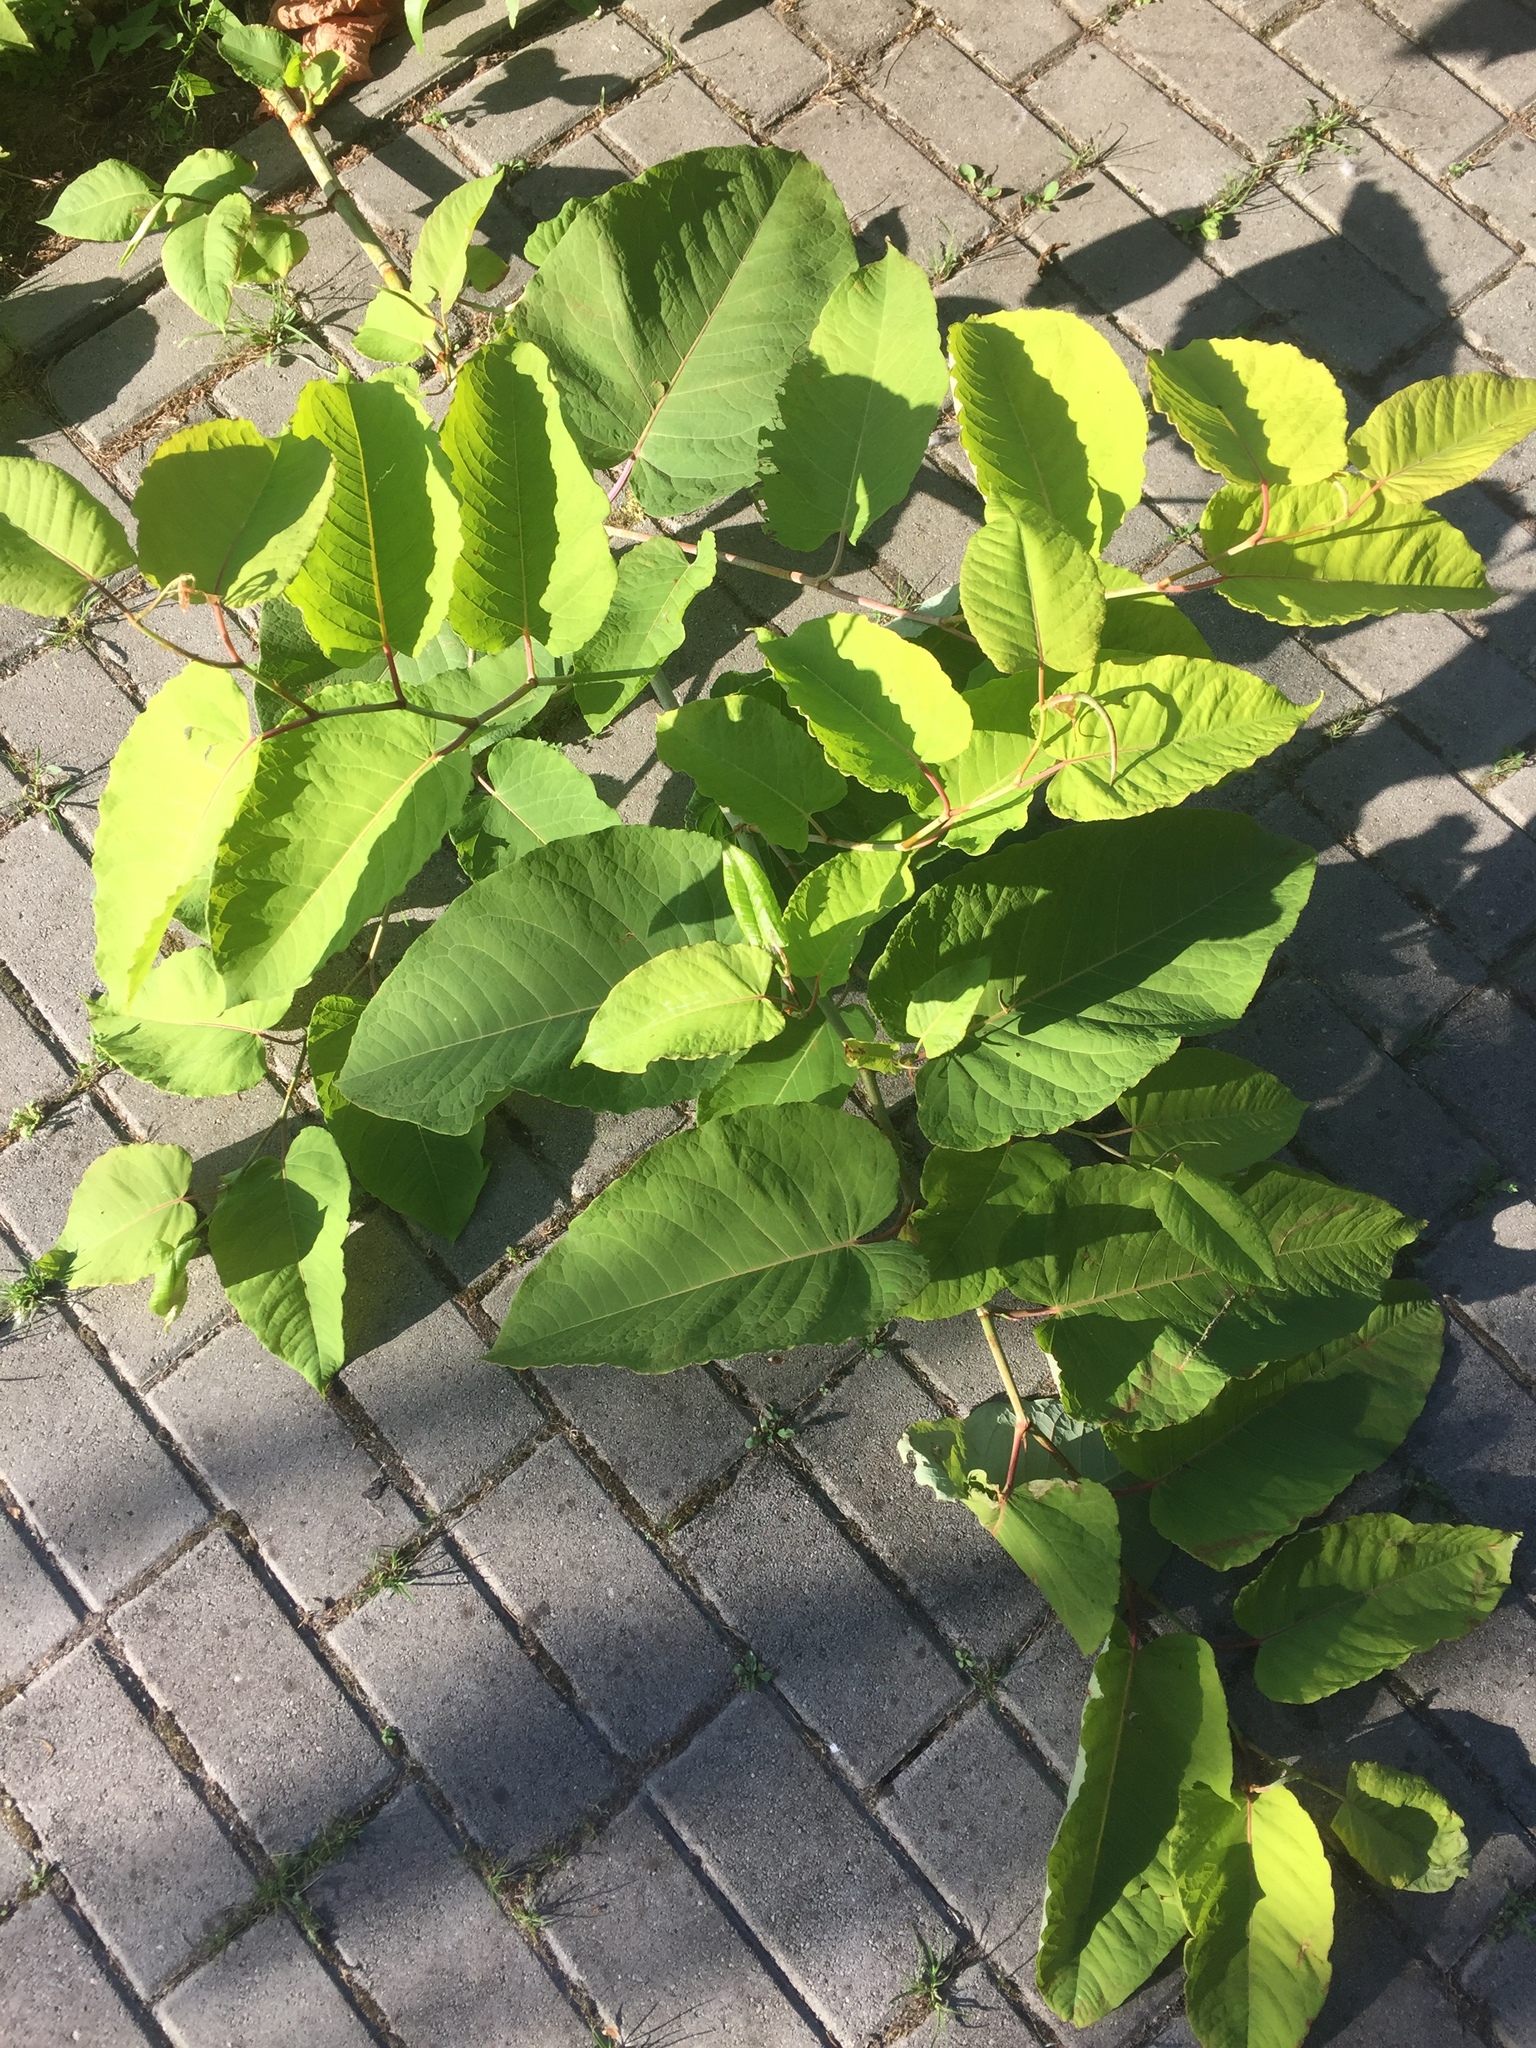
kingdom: Plantae
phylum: Tracheophyta
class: Magnoliopsida
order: Caryophyllales
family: Polygonaceae
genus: Reynoutria
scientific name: Reynoutria sachalinensis
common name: Giant knotweed
